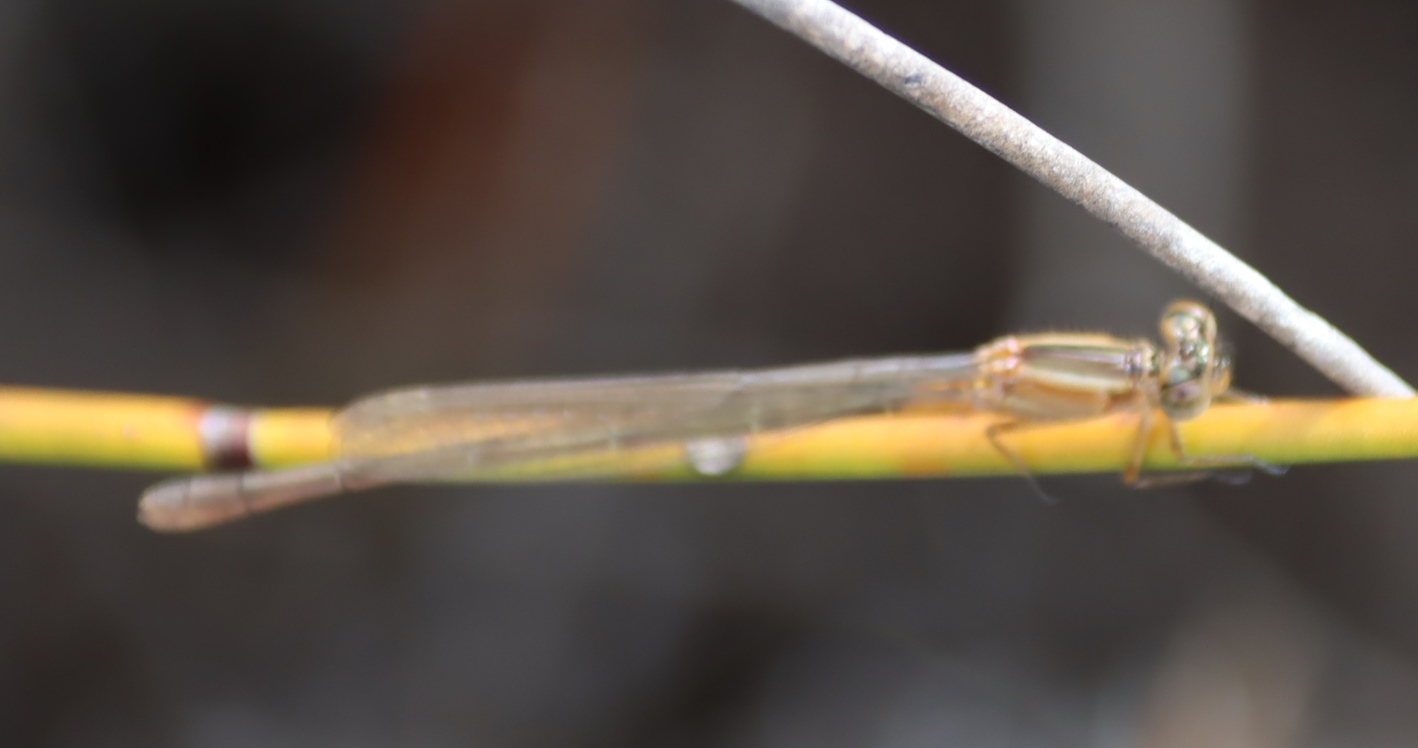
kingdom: Animalia
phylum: Arthropoda
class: Insecta
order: Odonata
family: Coenagrionidae
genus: Ischnura
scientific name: Ischnura senegalensis
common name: Tropical bluetail
